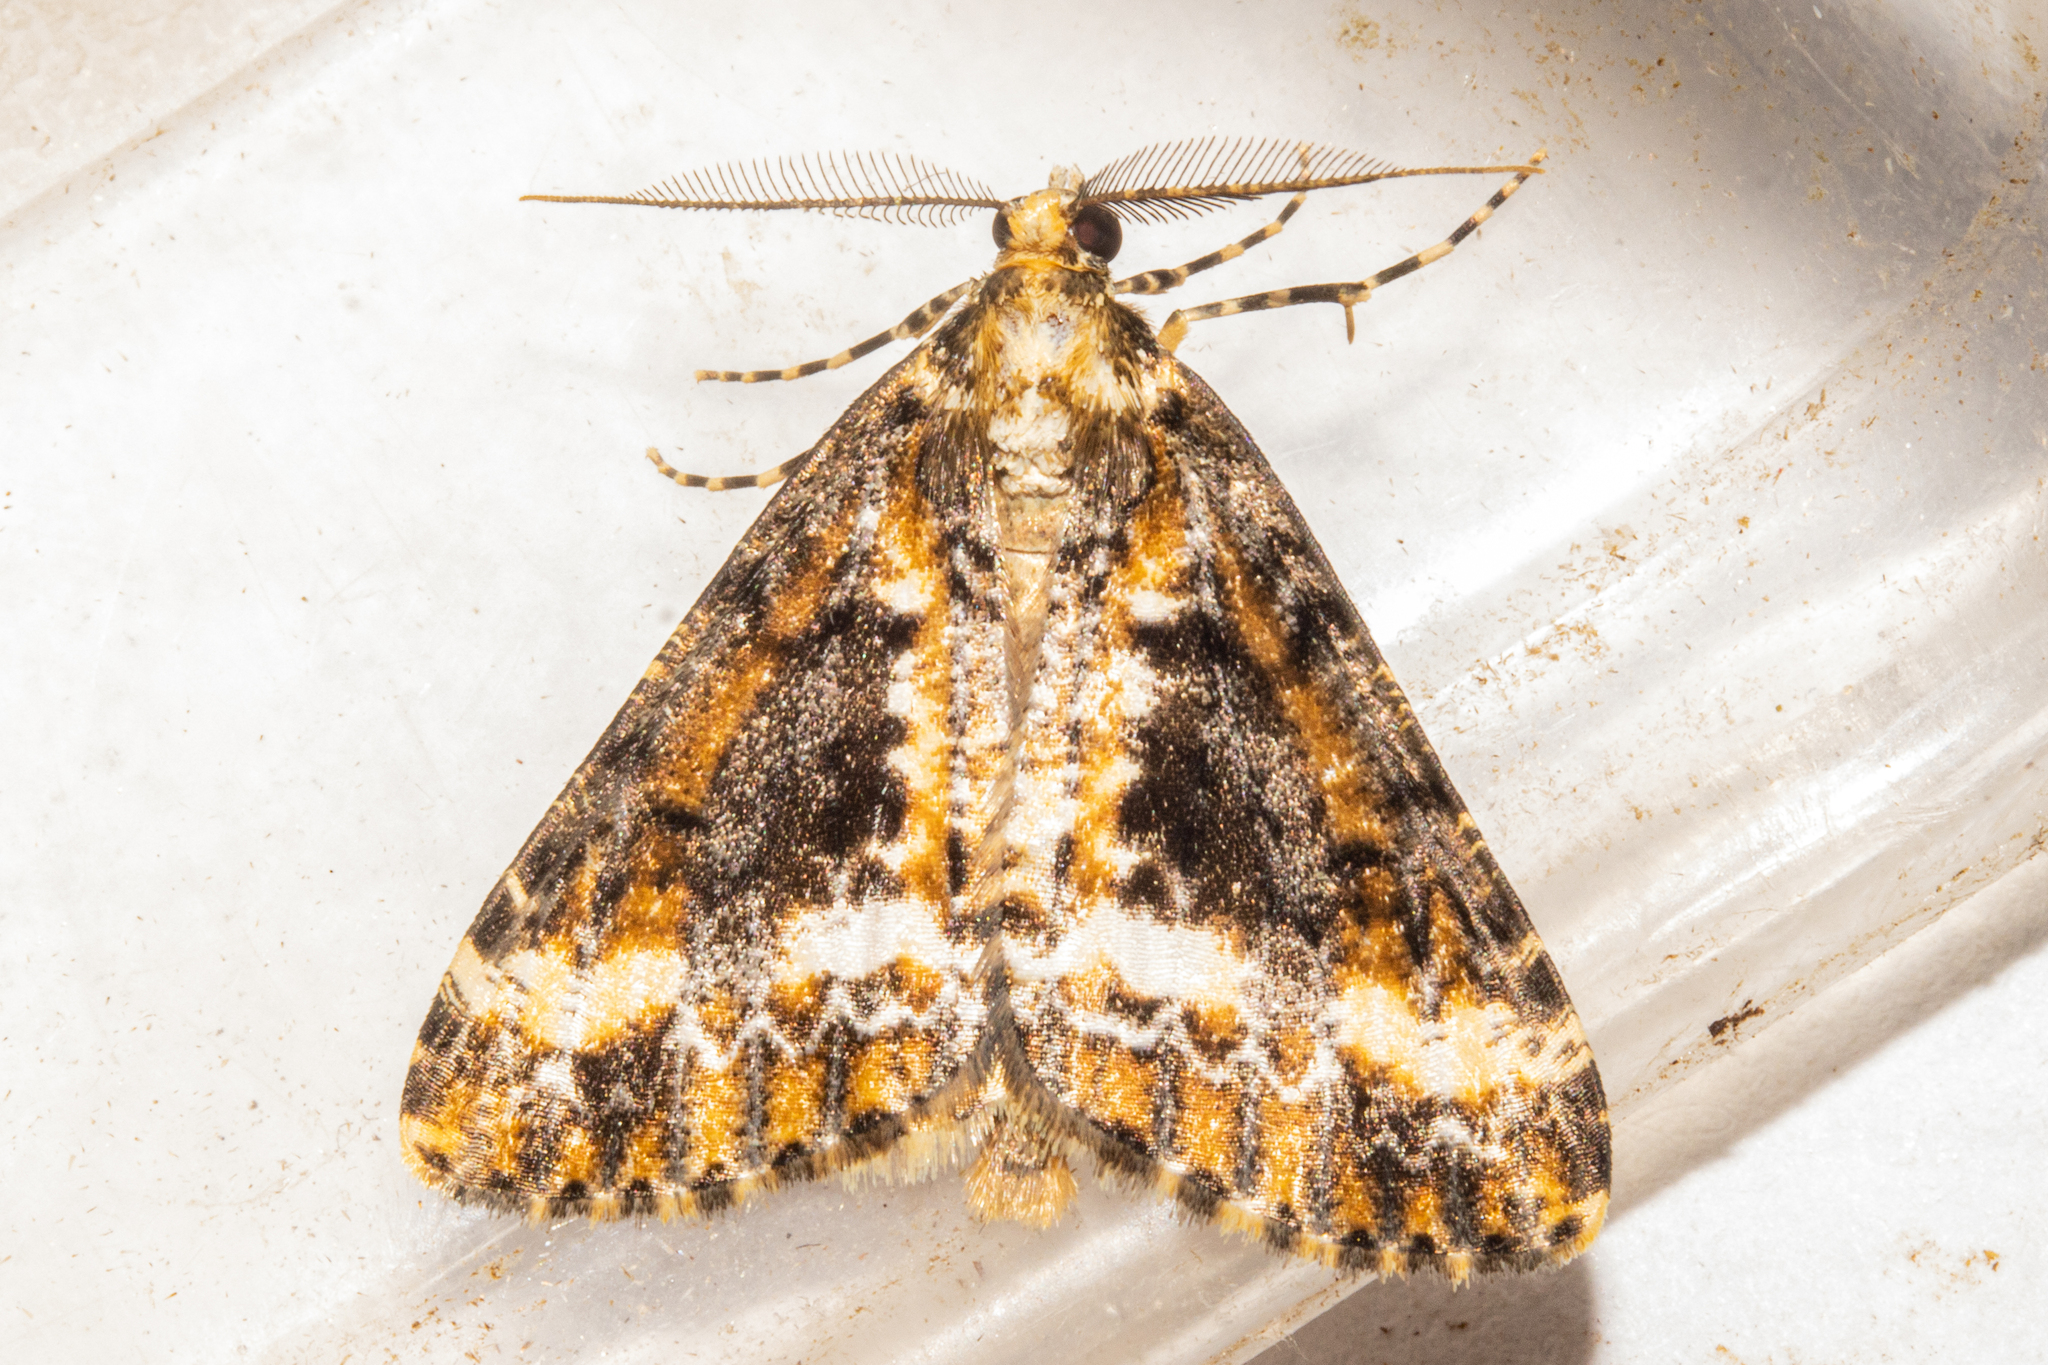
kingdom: Animalia
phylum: Arthropoda
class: Insecta
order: Lepidoptera
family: Geometridae
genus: Pseudocoremia
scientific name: Pseudocoremia leucelaea
